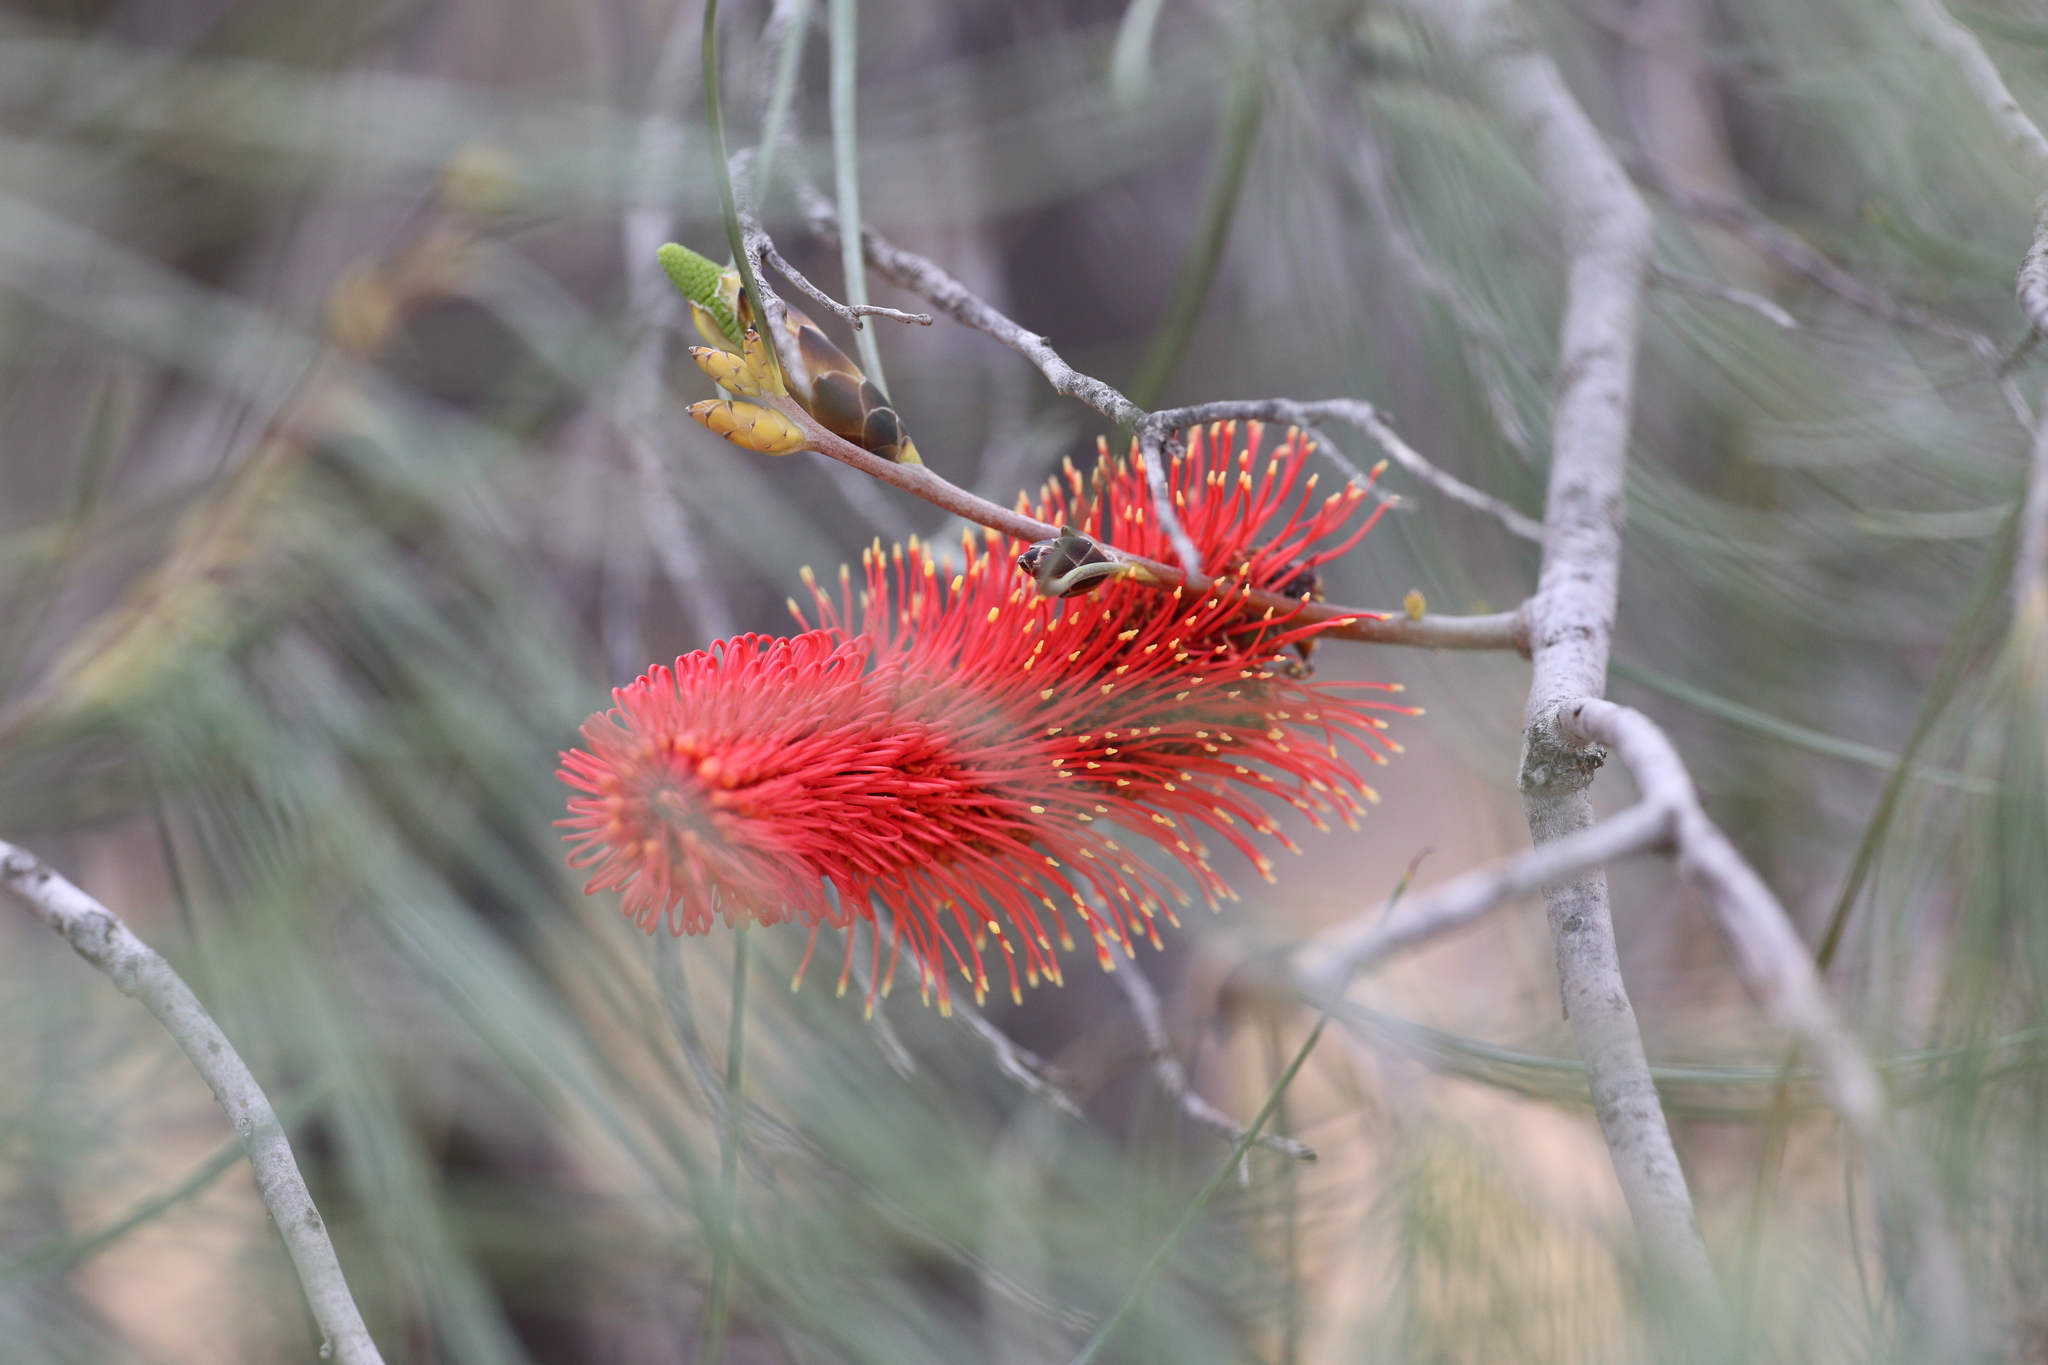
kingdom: Plantae
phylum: Tracheophyta
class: Magnoliopsida
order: Proteales
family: Proteaceae
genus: Hakea
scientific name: Hakea bucculenta
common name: Red pokers
